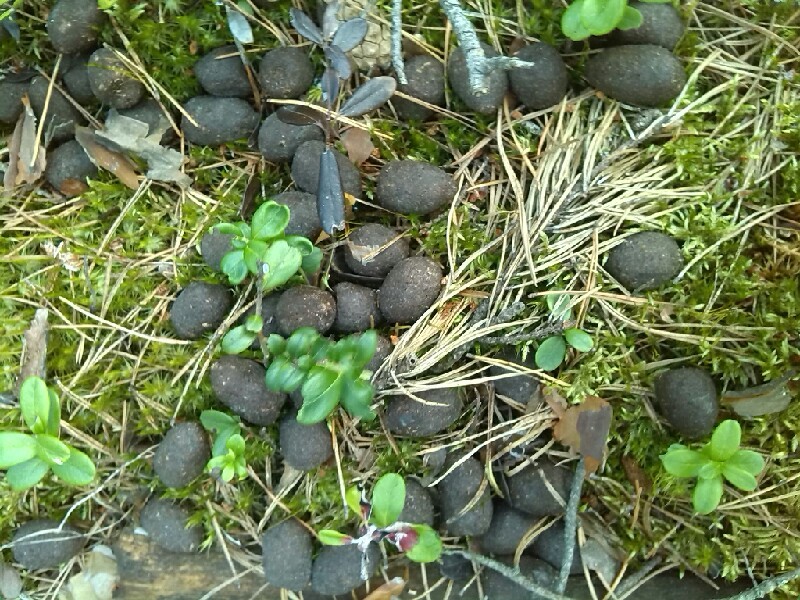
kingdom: Animalia
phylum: Chordata
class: Mammalia
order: Artiodactyla
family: Cervidae
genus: Alces
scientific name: Alces alces
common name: Moose
